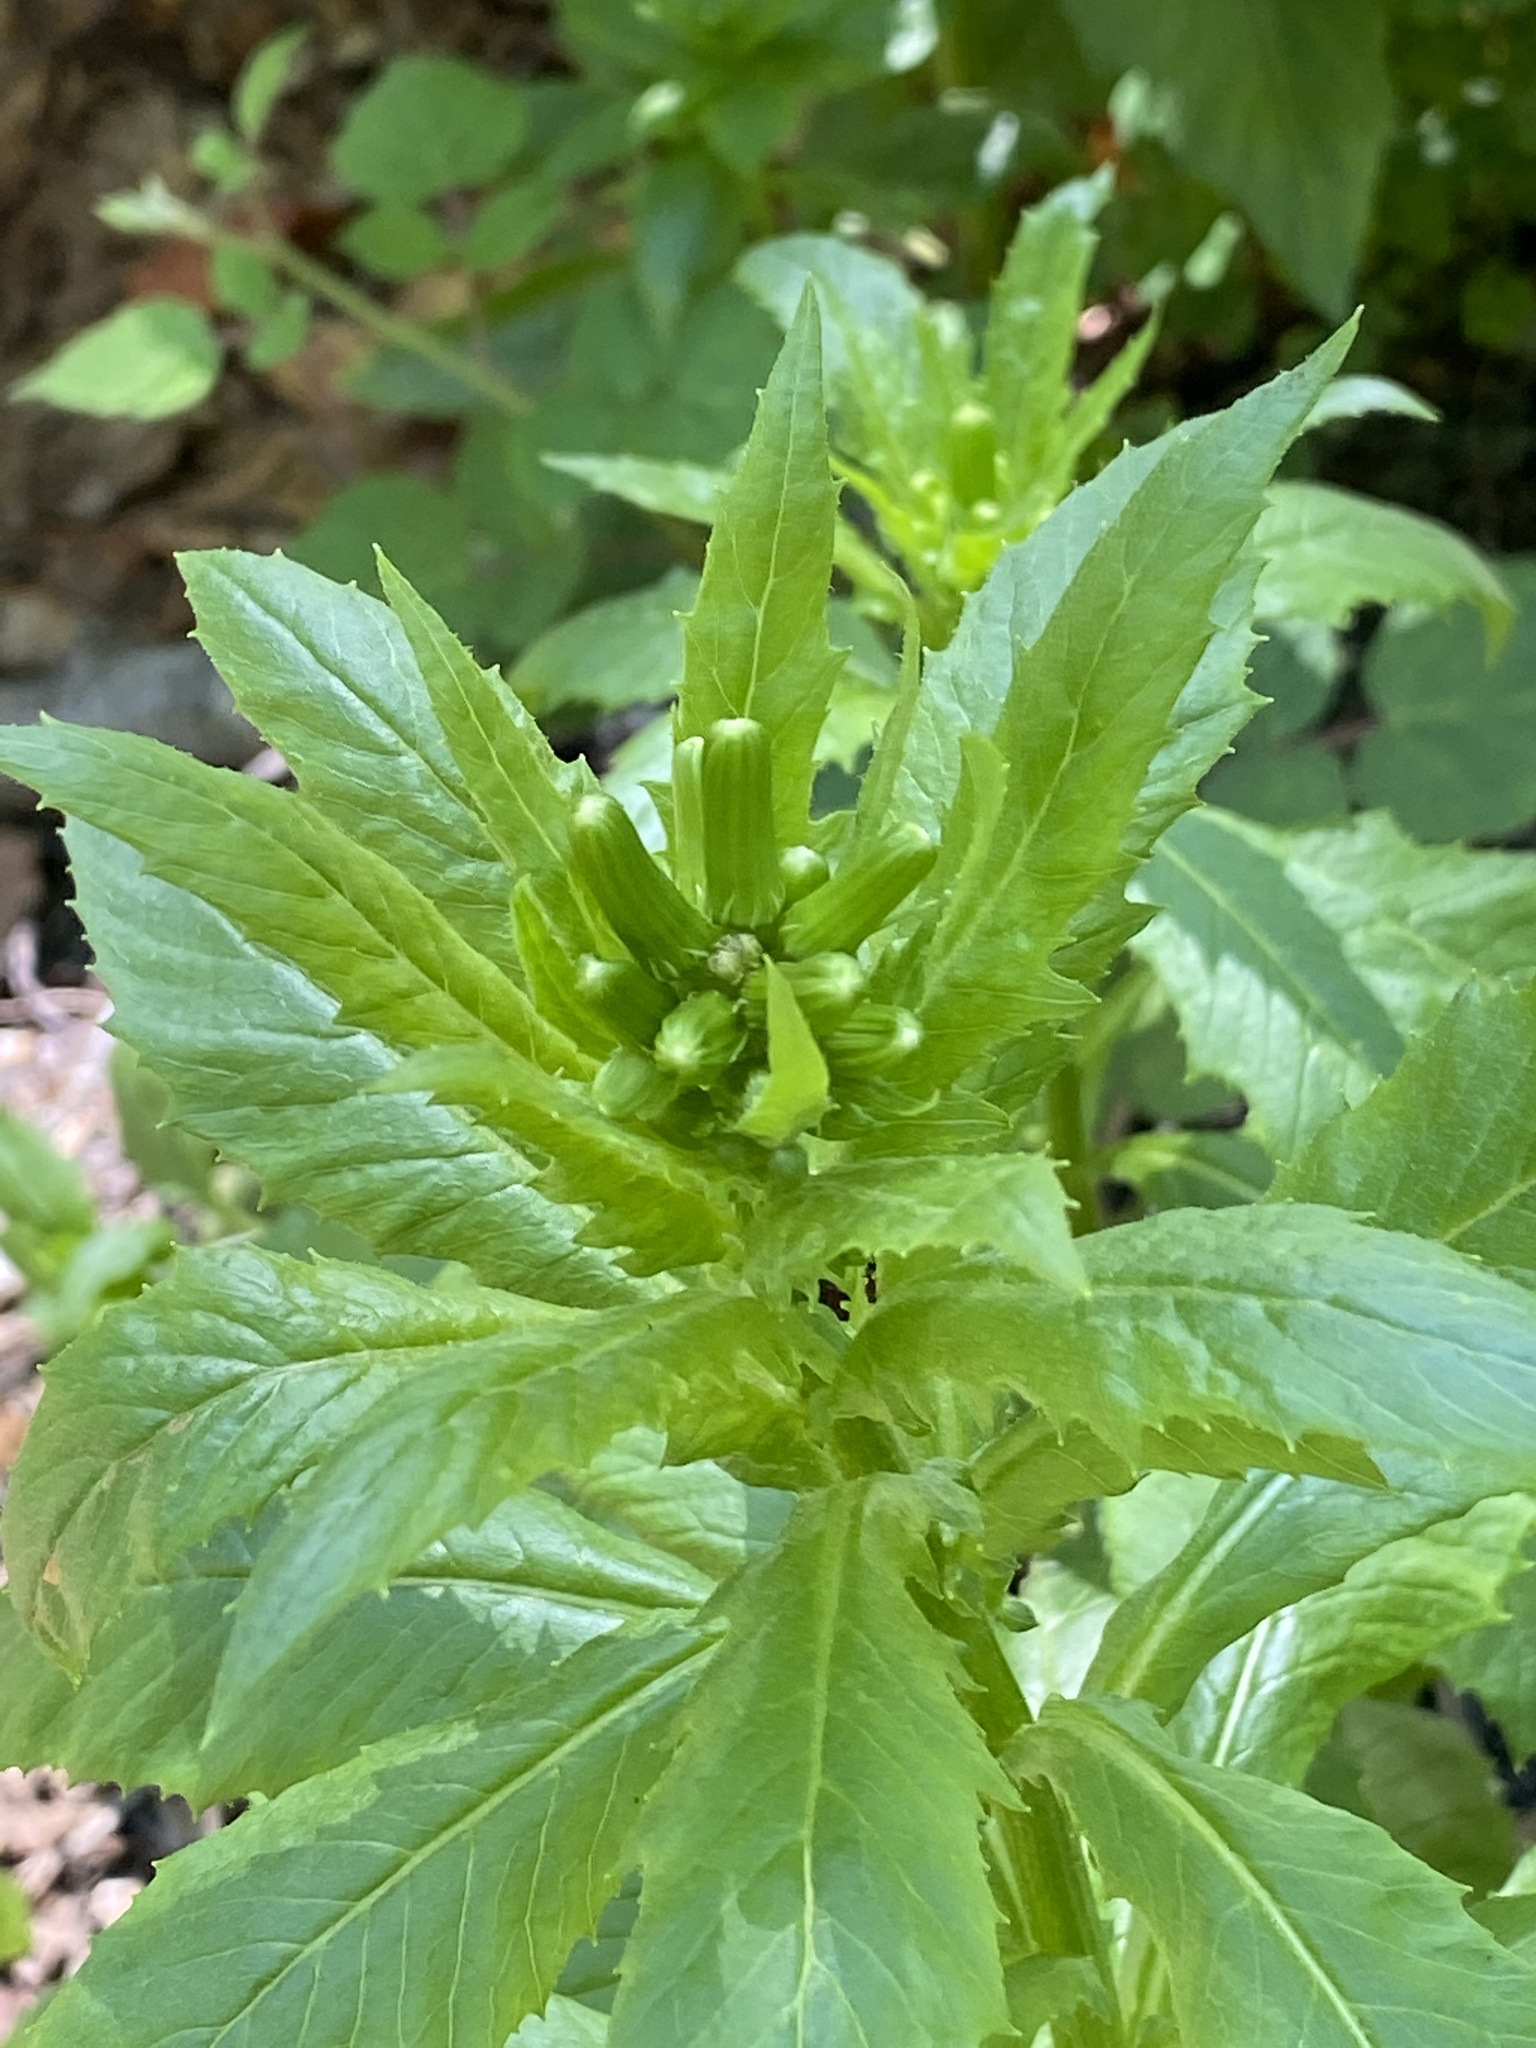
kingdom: Plantae
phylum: Tracheophyta
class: Magnoliopsida
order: Asterales
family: Asteraceae
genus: Erechtites
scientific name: Erechtites hieraciifolius
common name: American burnweed
